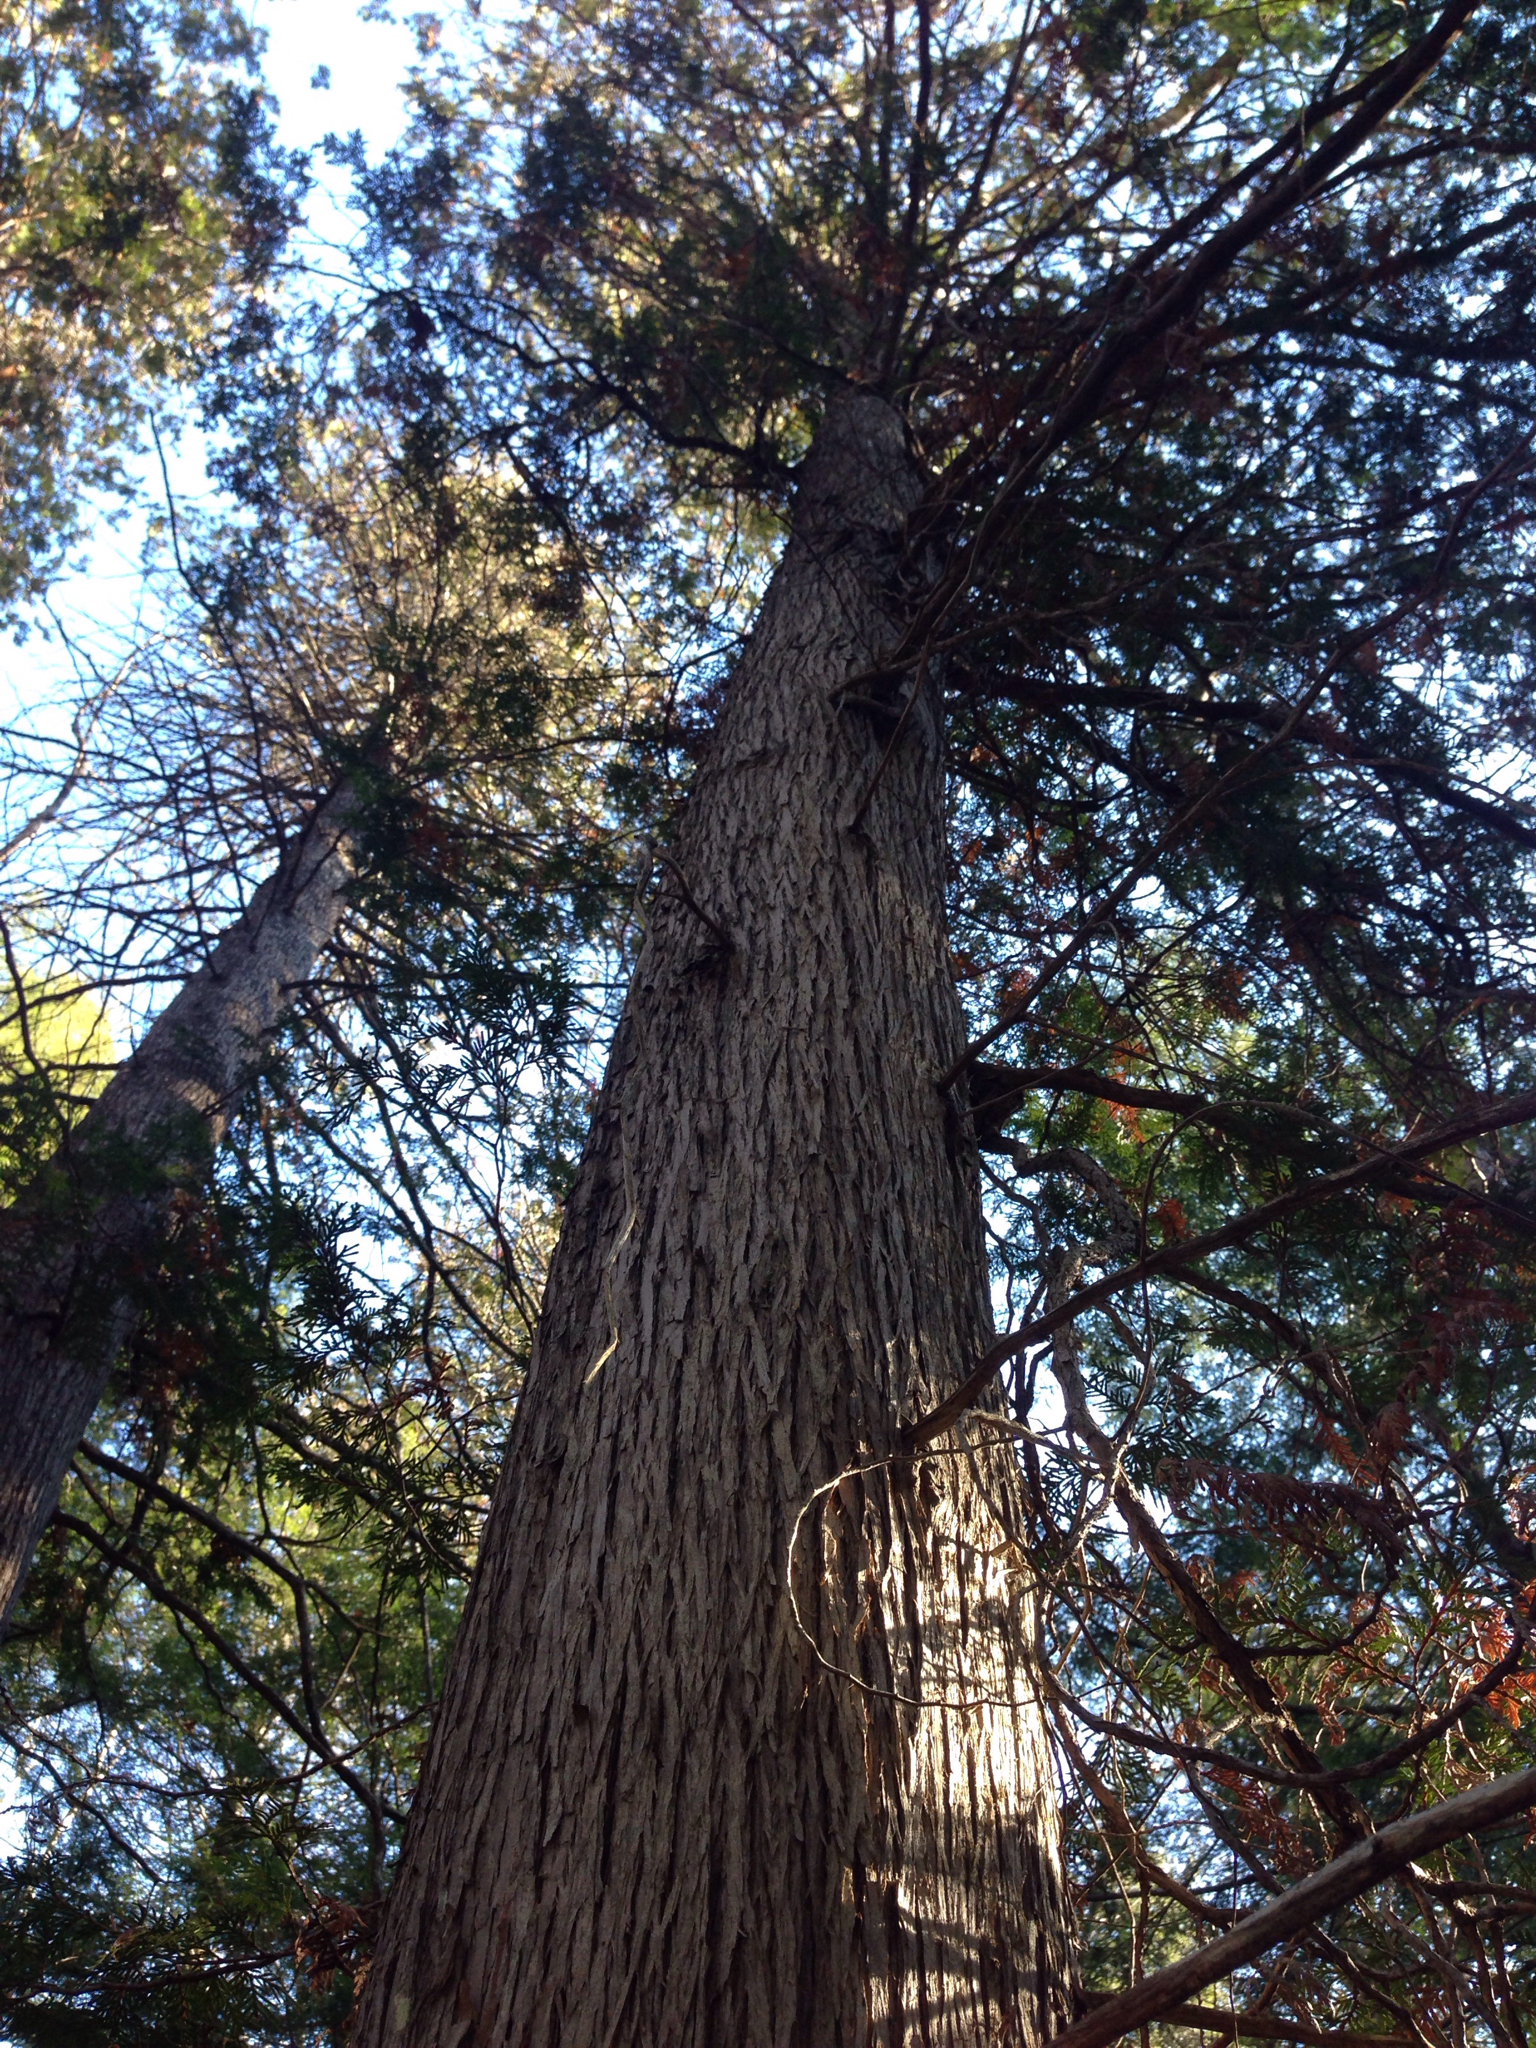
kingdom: Plantae
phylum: Tracheophyta
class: Pinopsida
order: Pinales
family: Cupressaceae
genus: Thuja
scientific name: Thuja occidentalis
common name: Northern white-cedar
